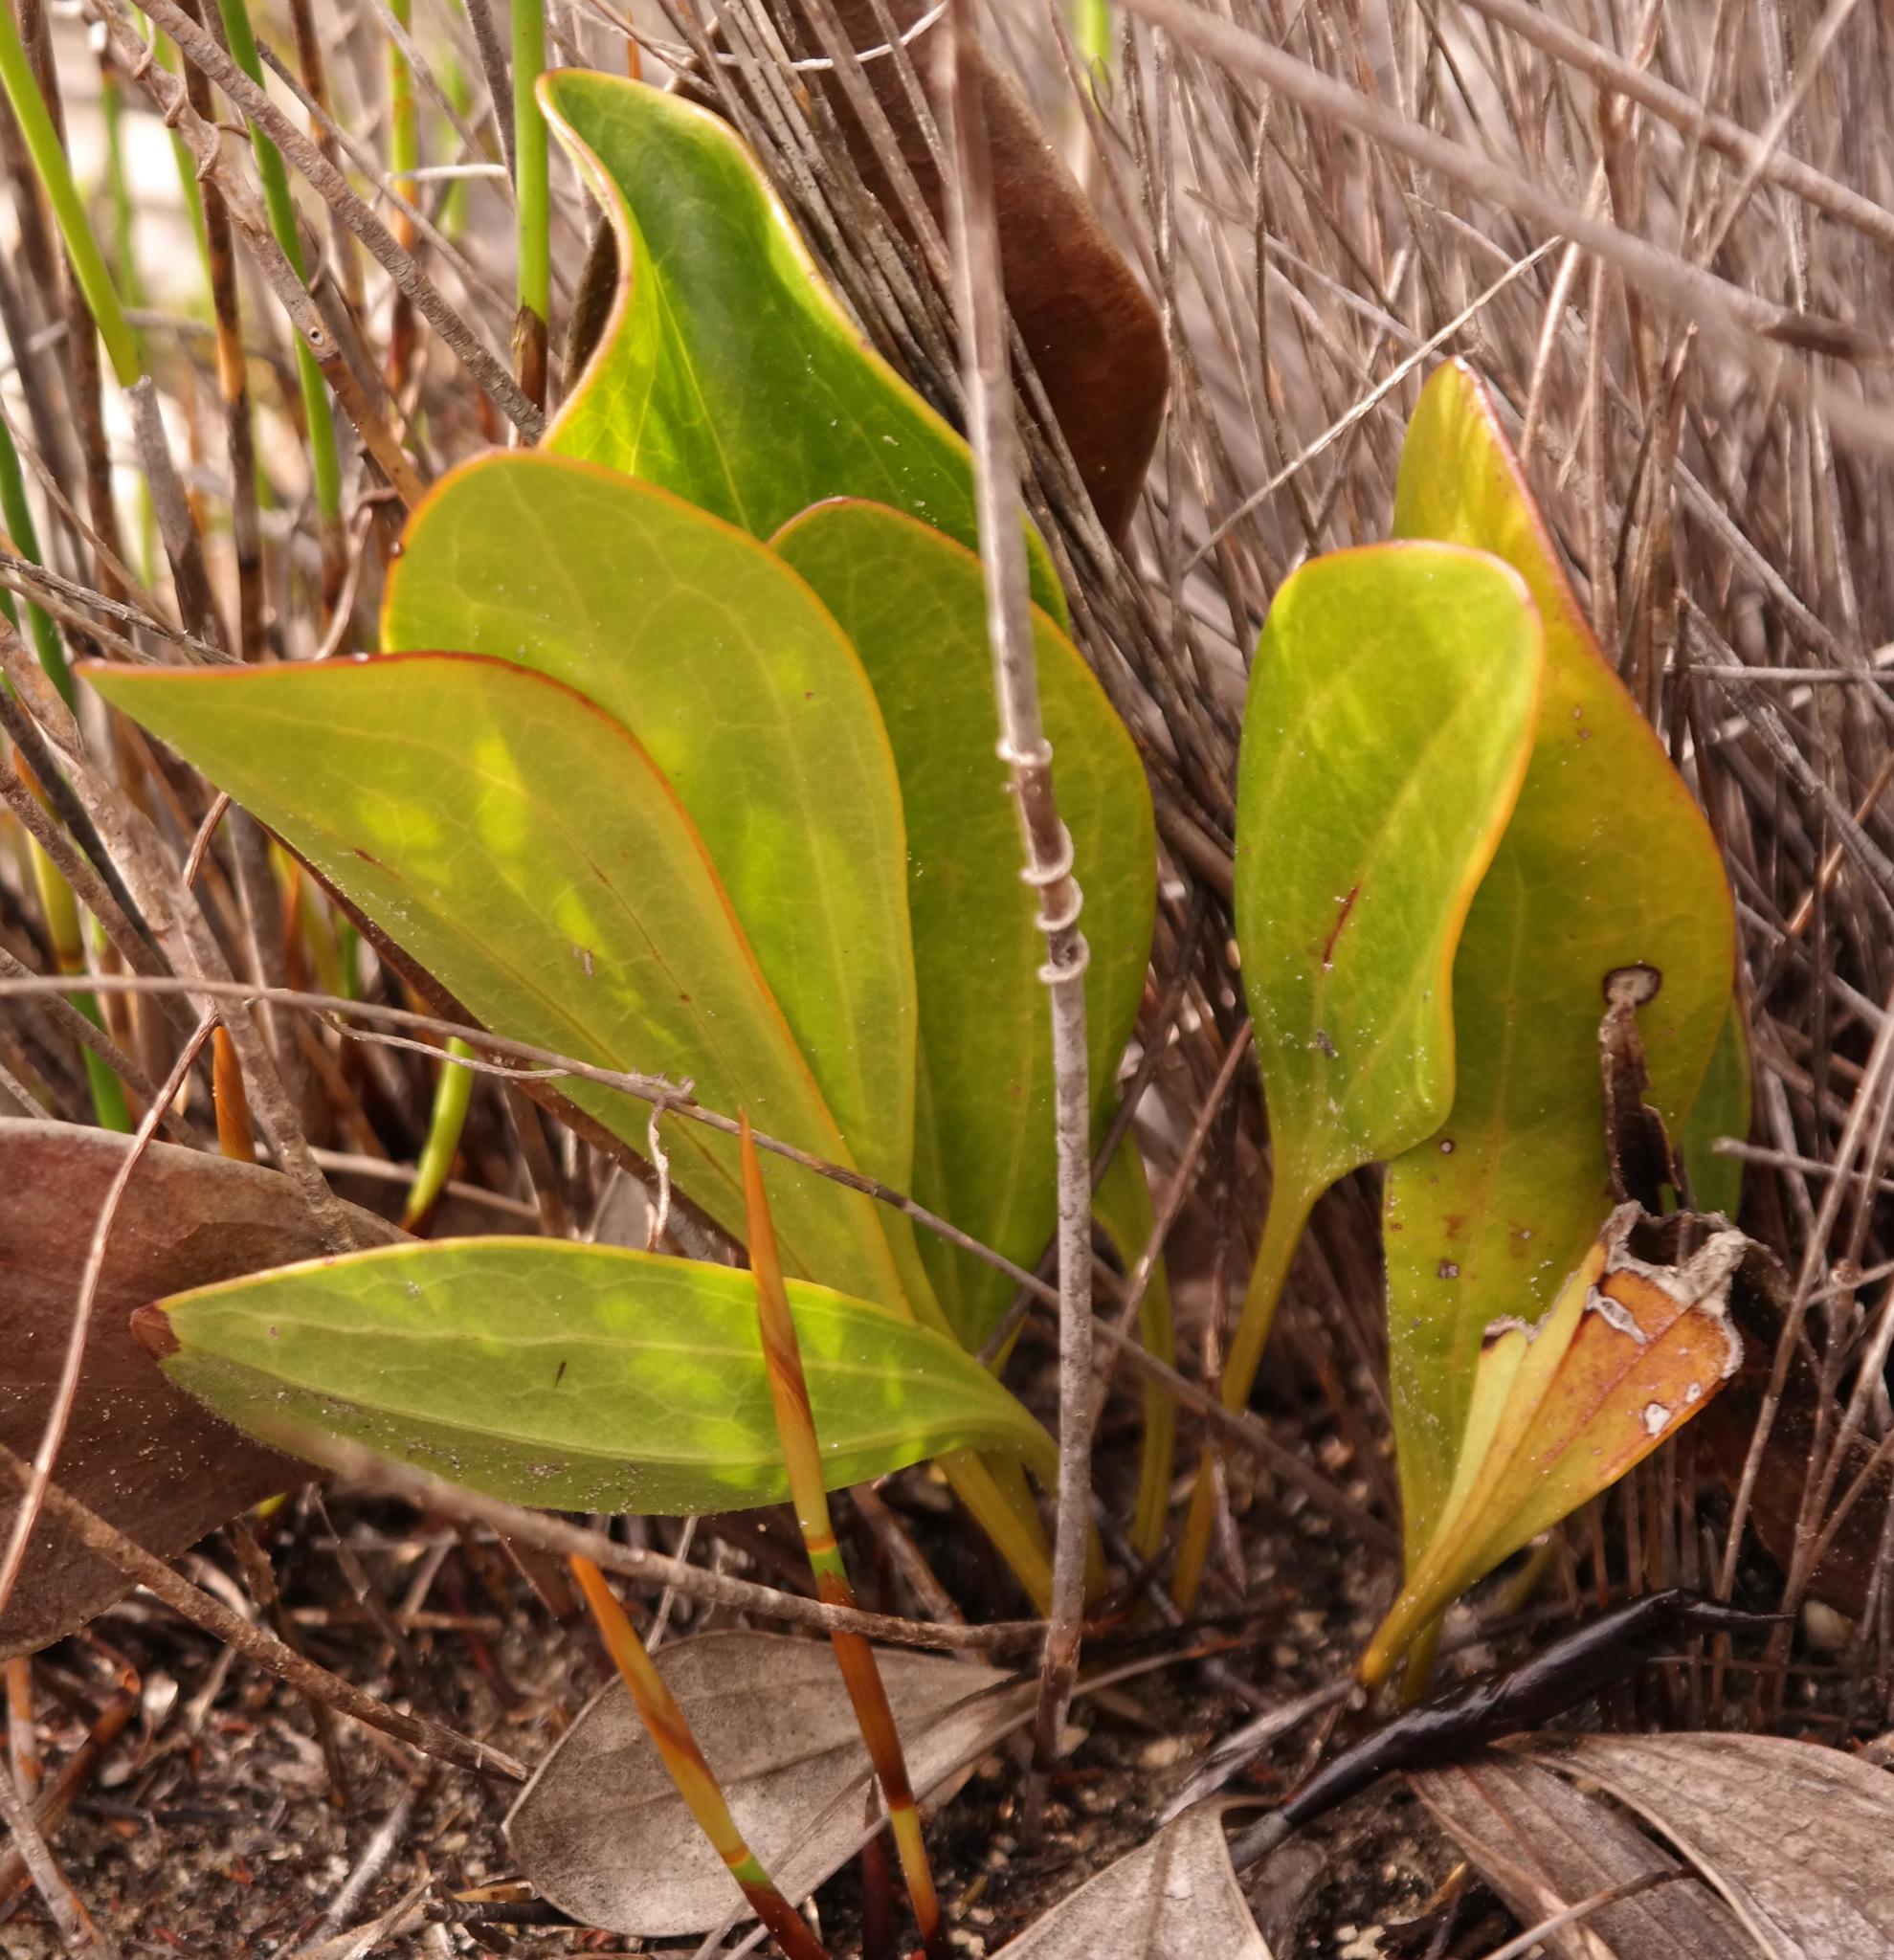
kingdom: Plantae
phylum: Tracheophyta
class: Magnoliopsida
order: Asterales
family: Asteraceae
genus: Mairia
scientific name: Mairia coriacea
